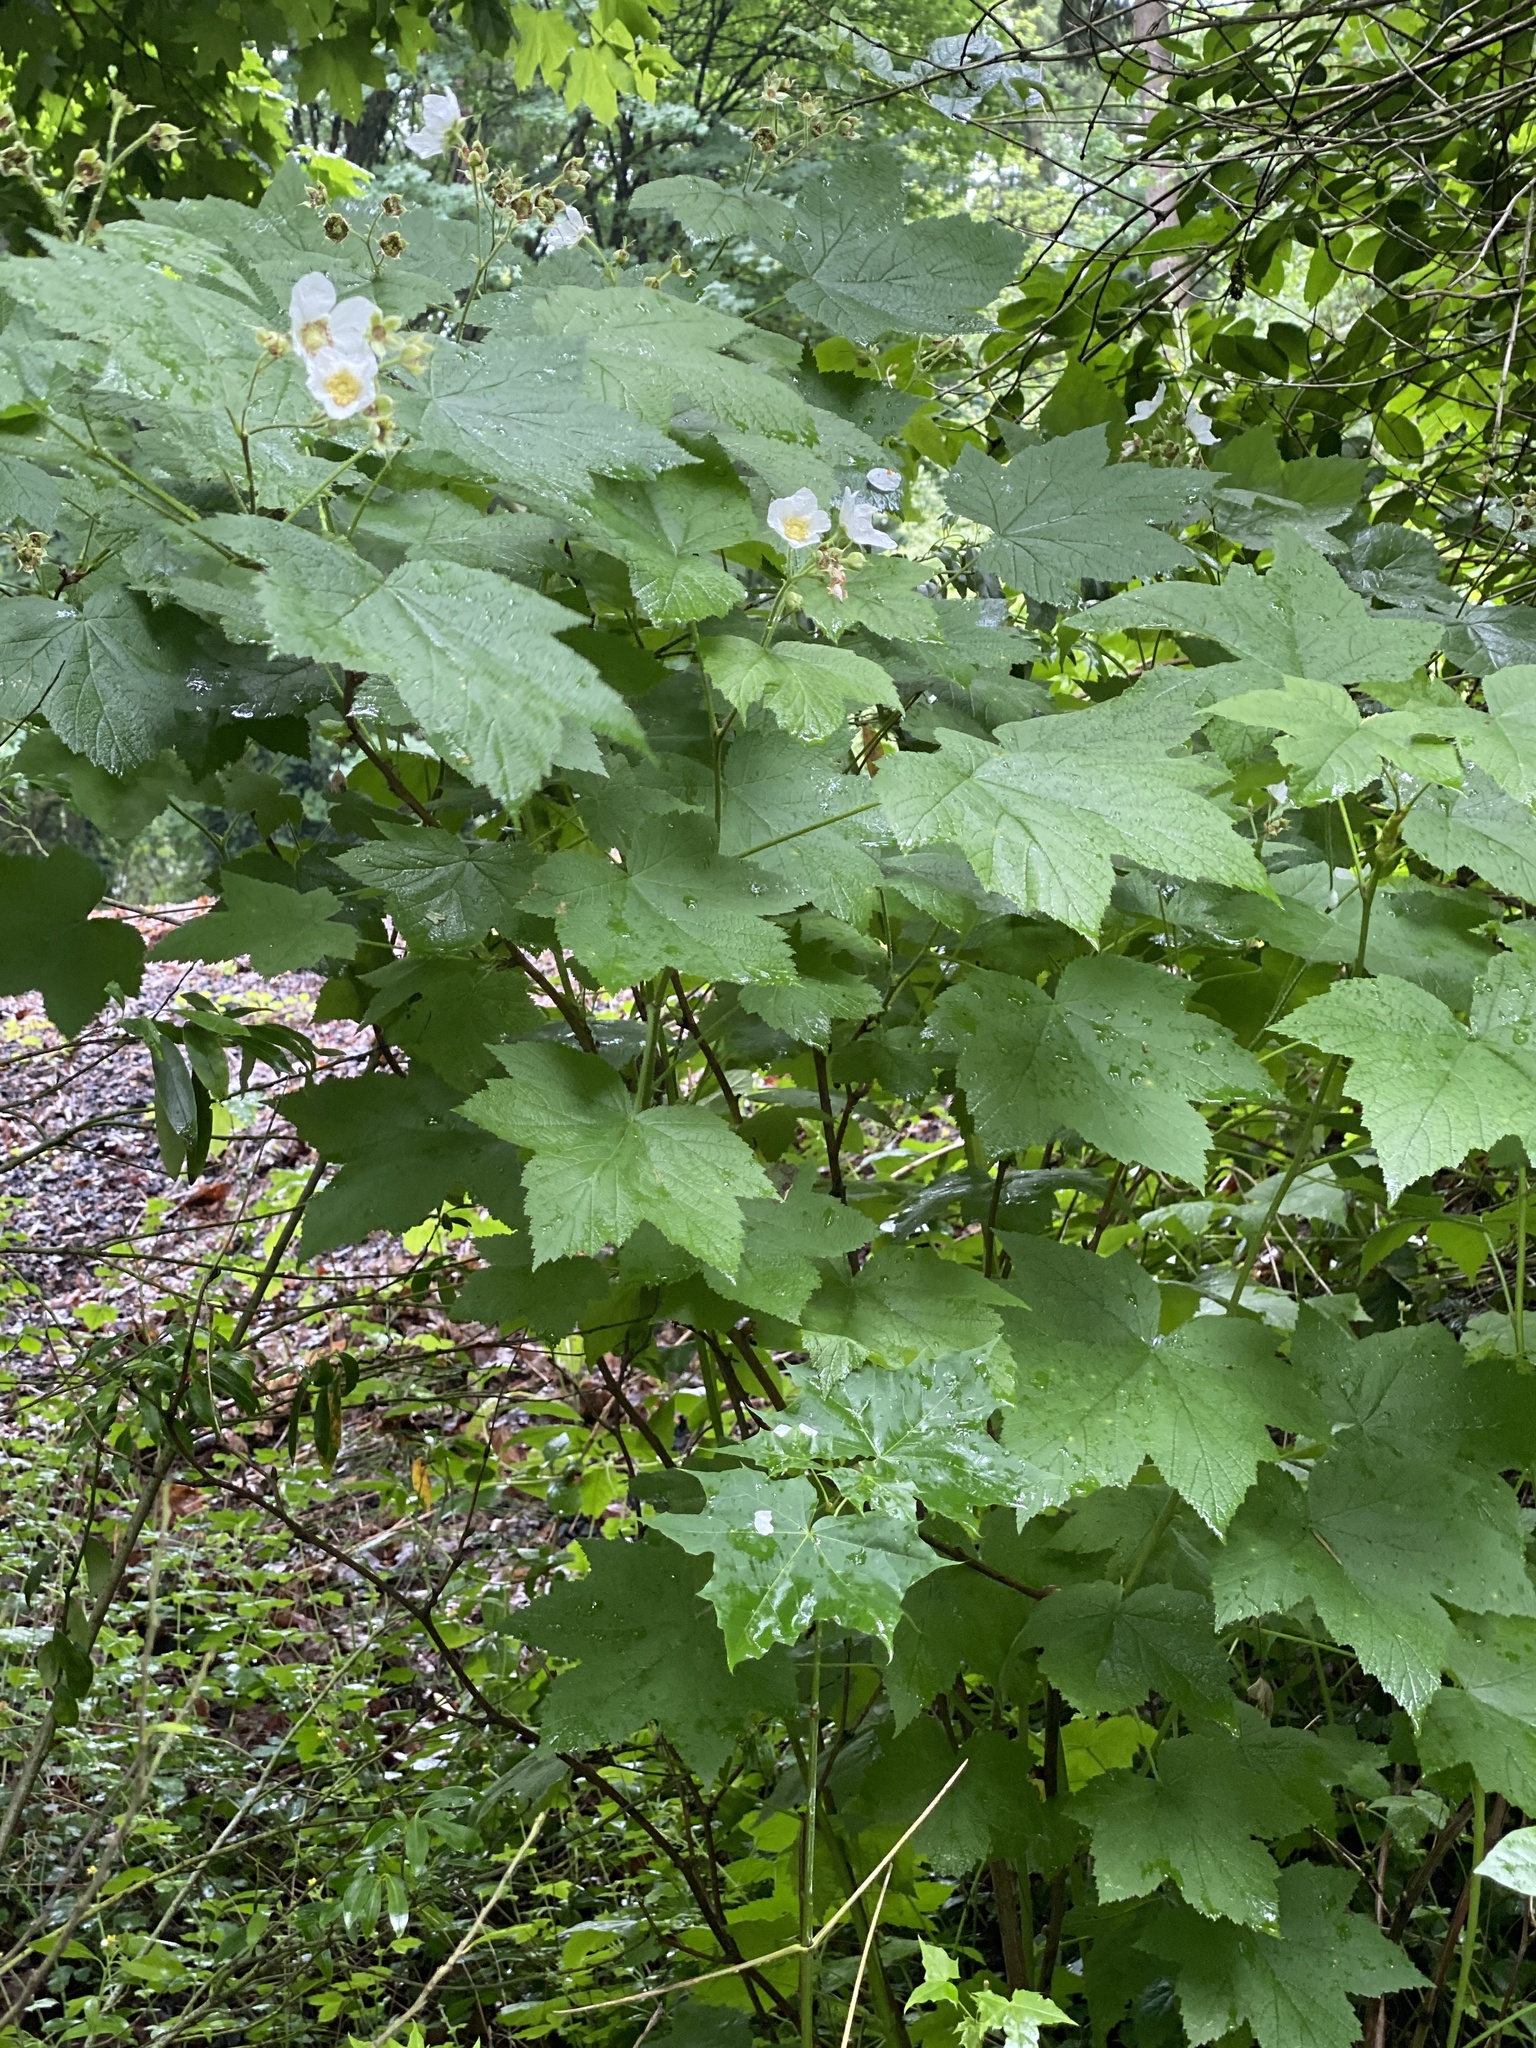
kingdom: Plantae
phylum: Tracheophyta
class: Magnoliopsida
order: Rosales
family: Rosaceae
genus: Rubus
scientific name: Rubus parviflorus
